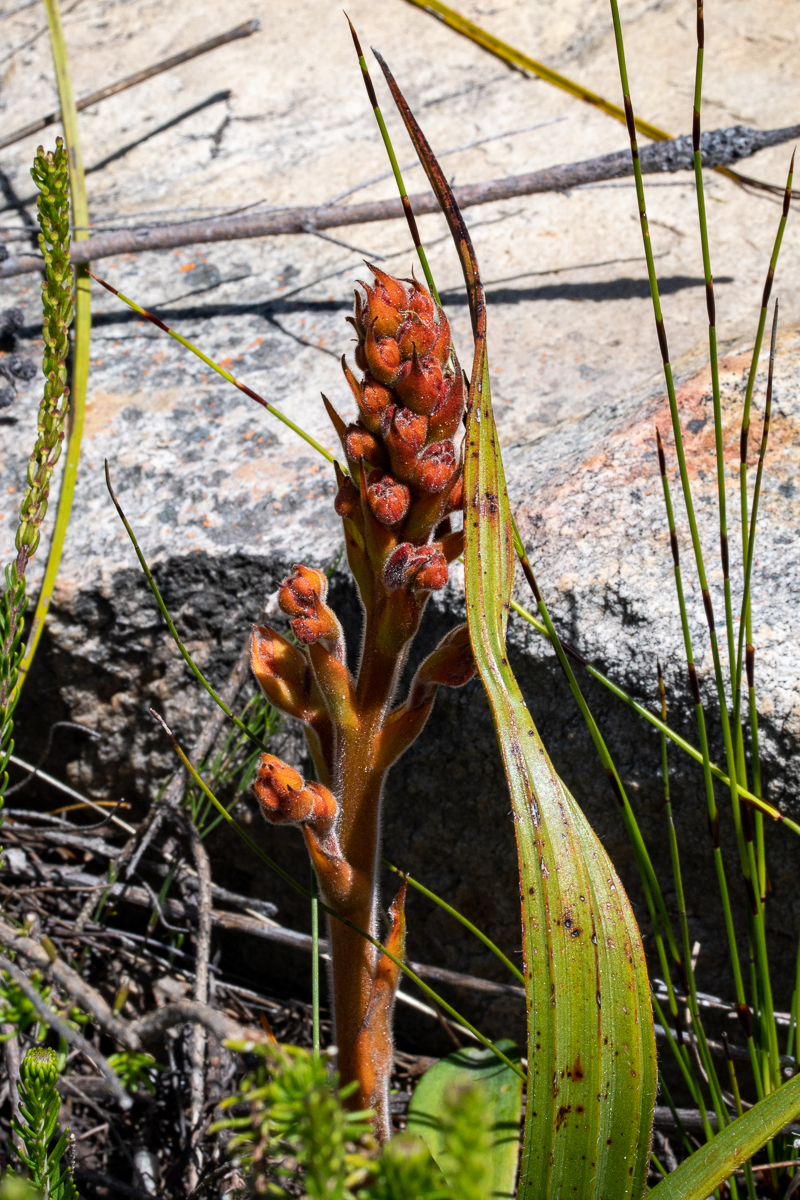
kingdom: Plantae
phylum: Tracheophyta
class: Liliopsida
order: Commelinales
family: Haemodoraceae
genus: Wachendorfia
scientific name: Wachendorfia paniculata
